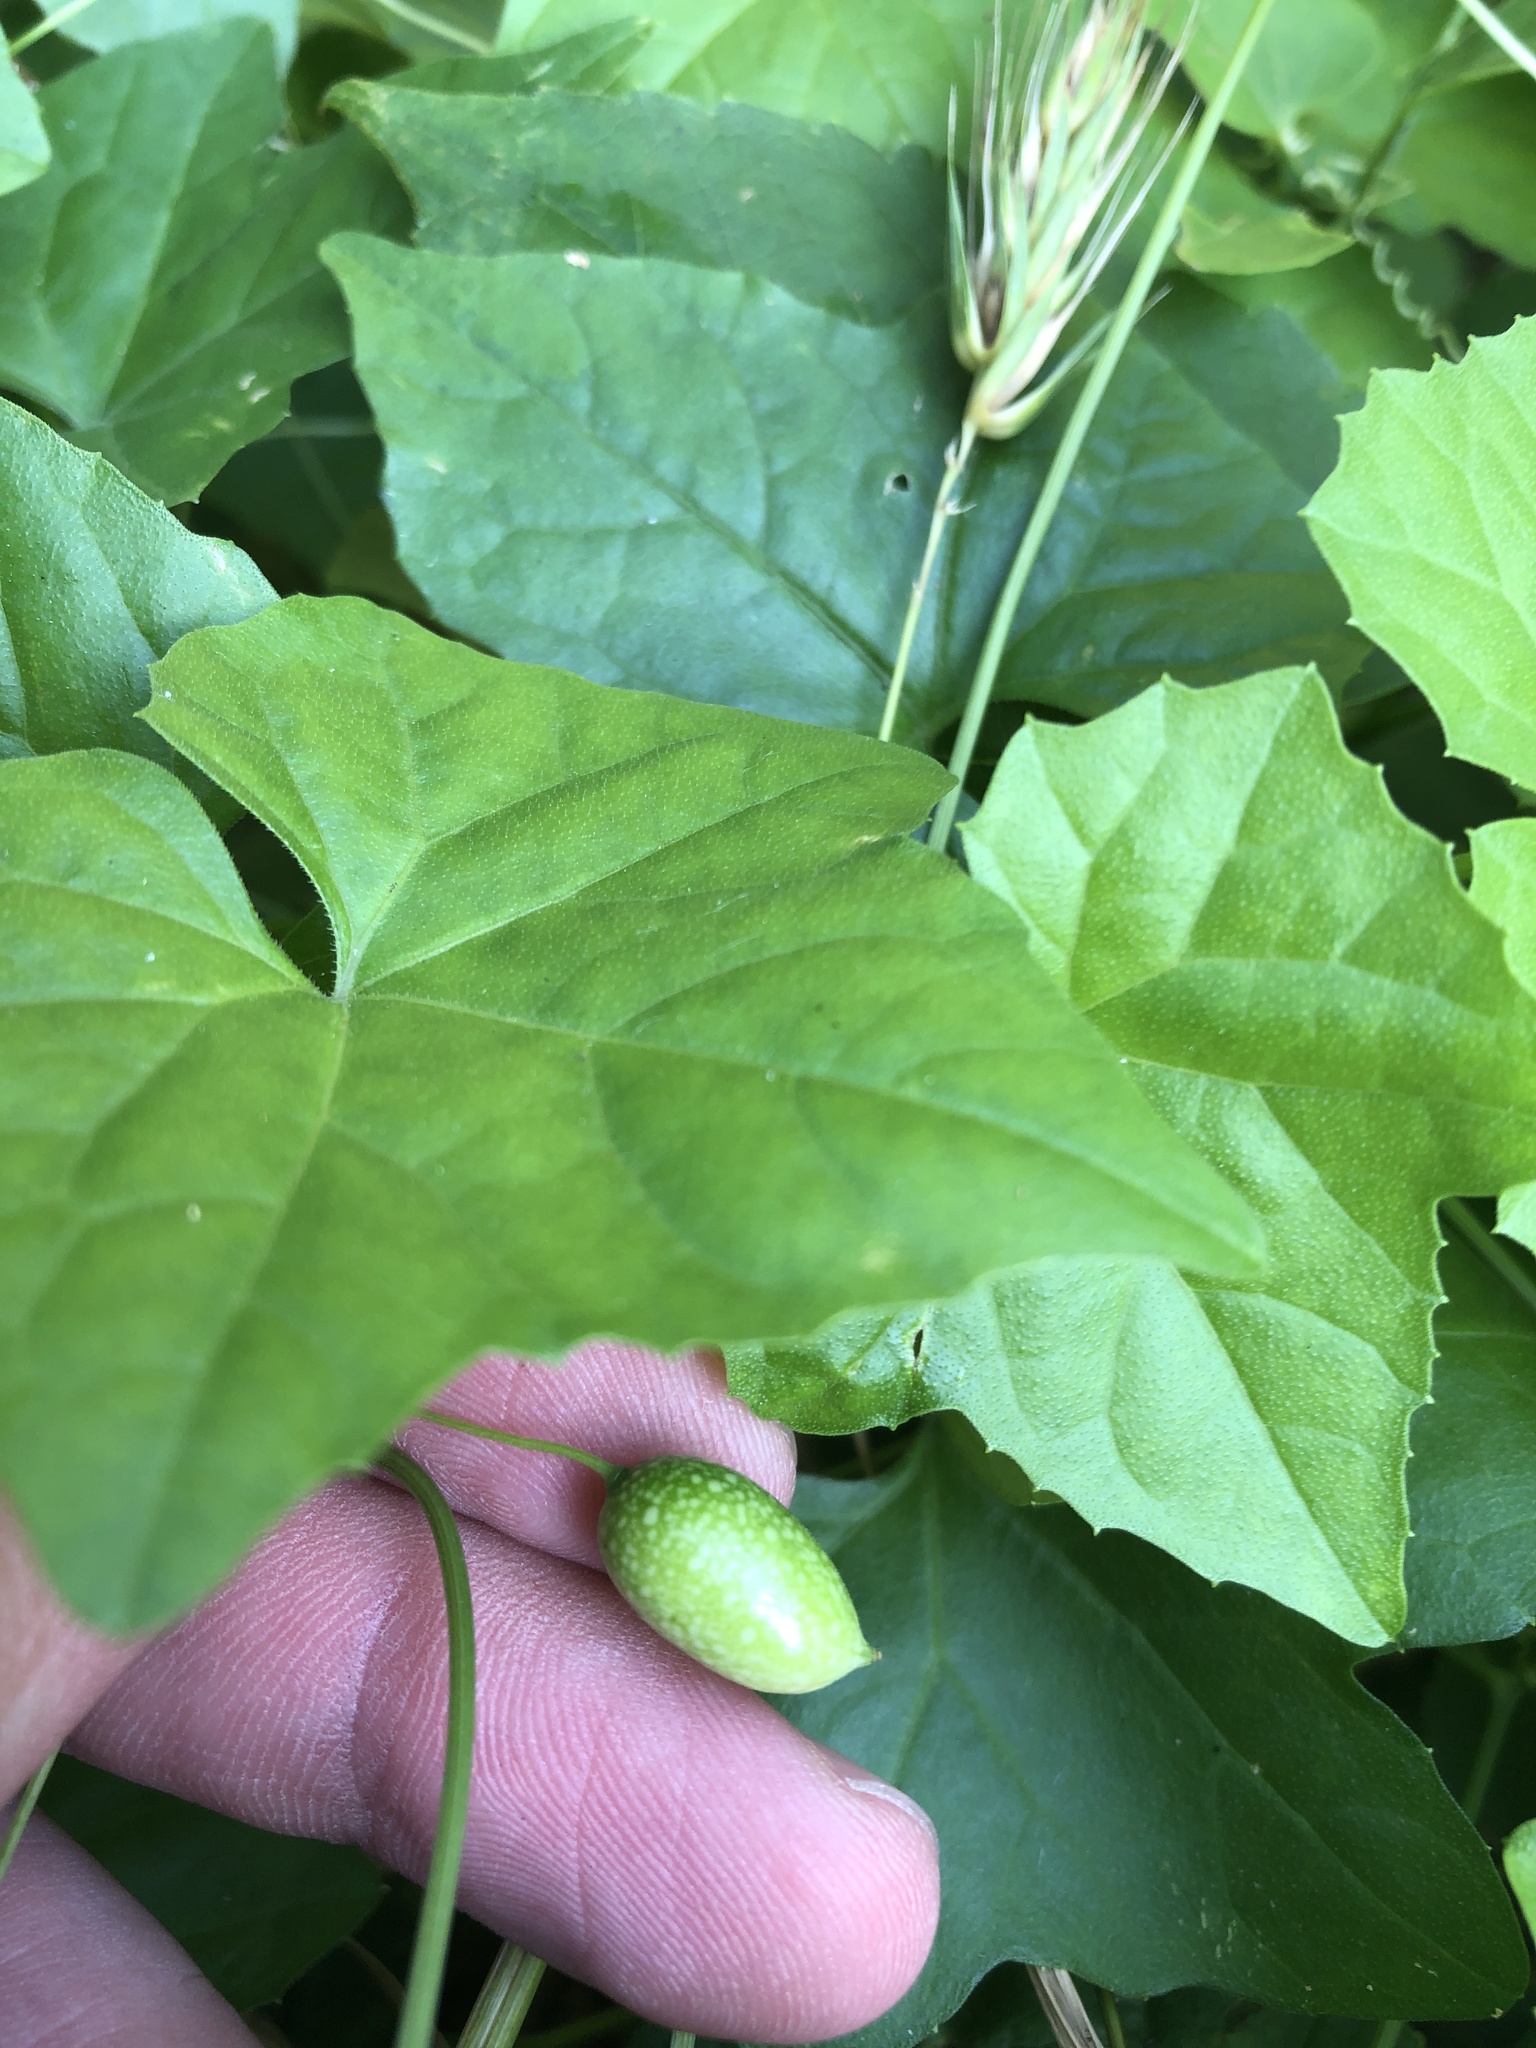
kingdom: Plantae
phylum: Tracheophyta
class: Magnoliopsida
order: Cucurbitales
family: Cucurbitaceae
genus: Melothria
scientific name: Melothria pendula
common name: Creeping-cucumber
